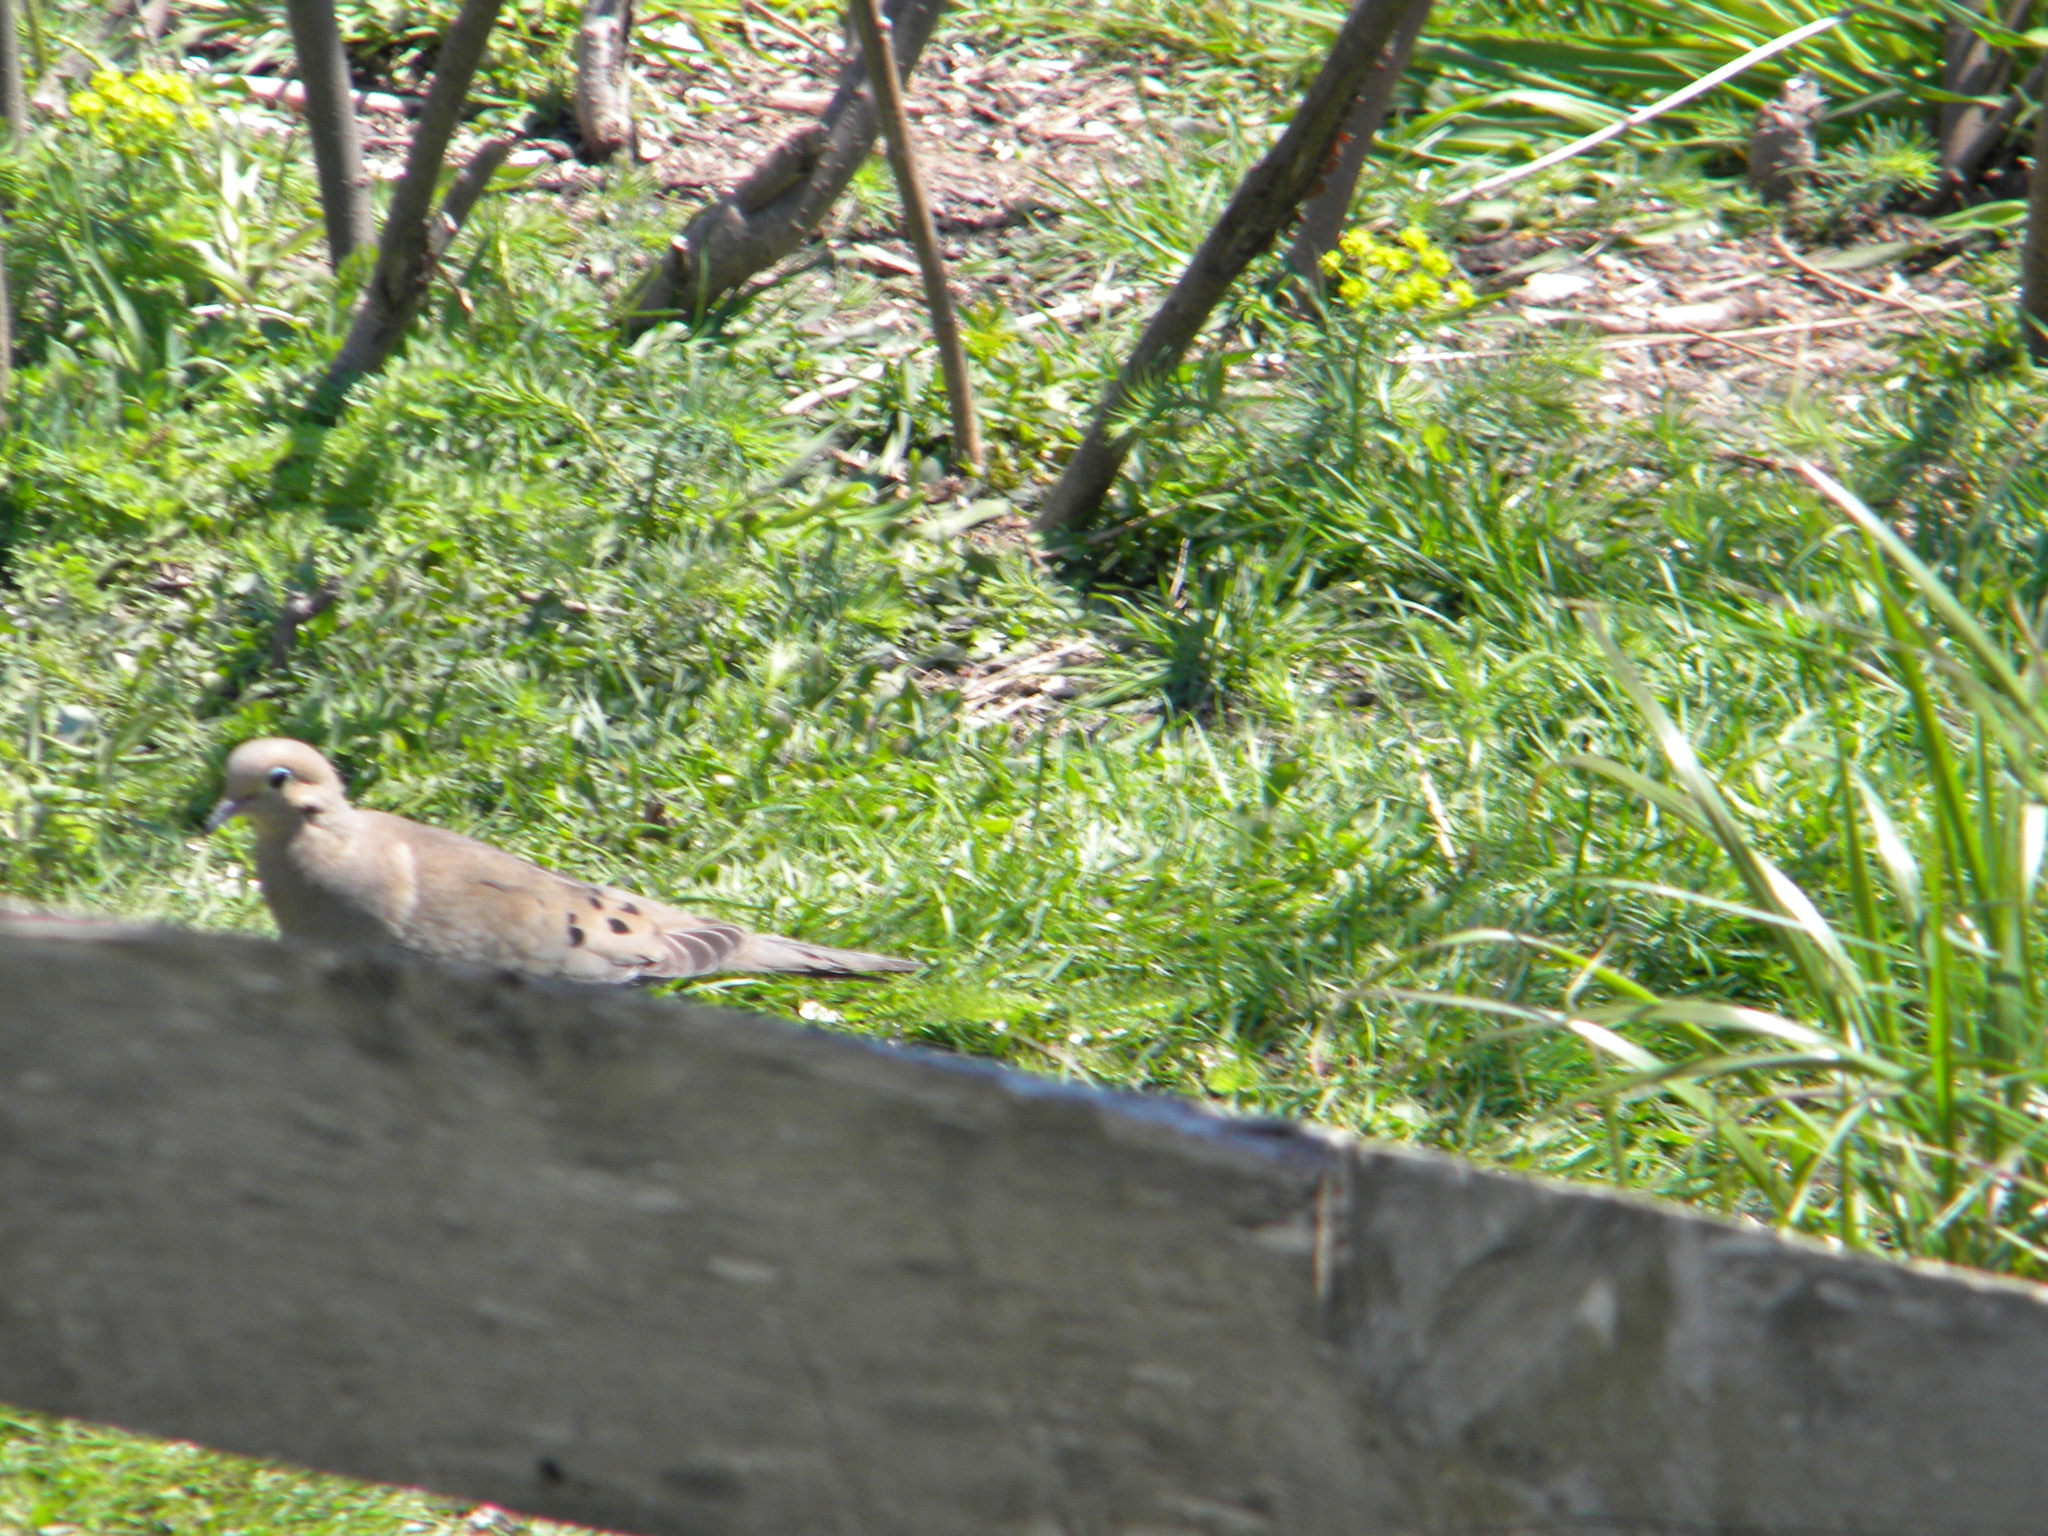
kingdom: Animalia
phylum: Chordata
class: Aves
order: Columbiformes
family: Columbidae
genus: Zenaida
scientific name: Zenaida macroura
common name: Mourning dove
